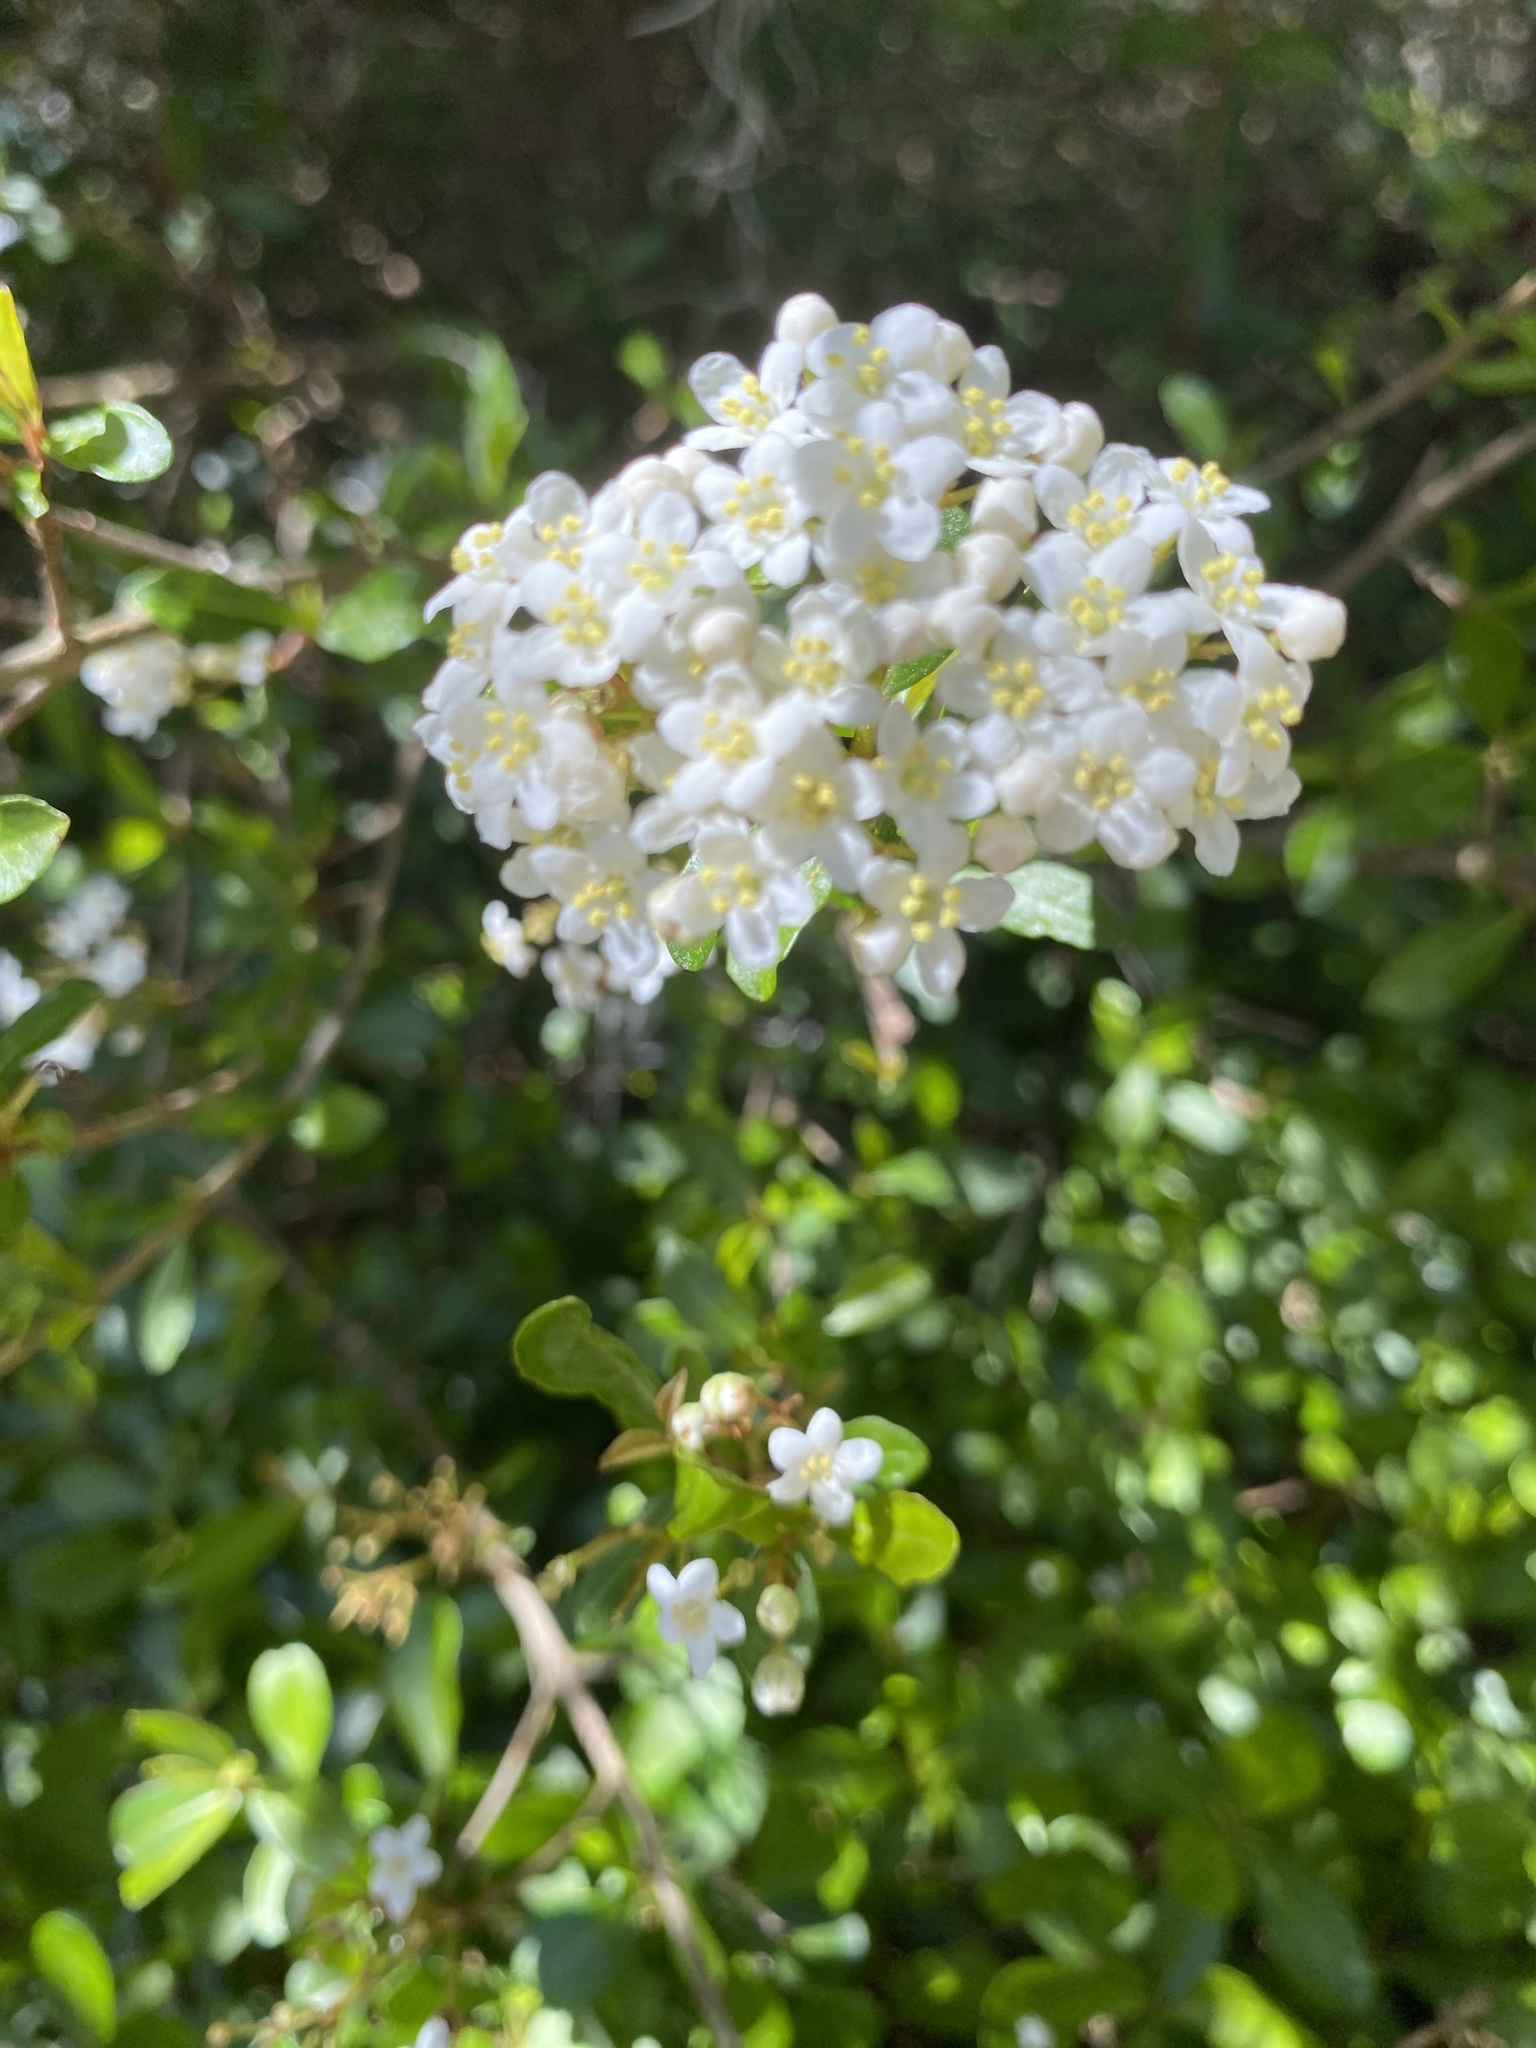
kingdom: Plantae
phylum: Tracheophyta
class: Magnoliopsida
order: Dipsacales
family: Viburnaceae
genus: Viburnum
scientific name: Viburnum obovatum
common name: Walter's viburnum
